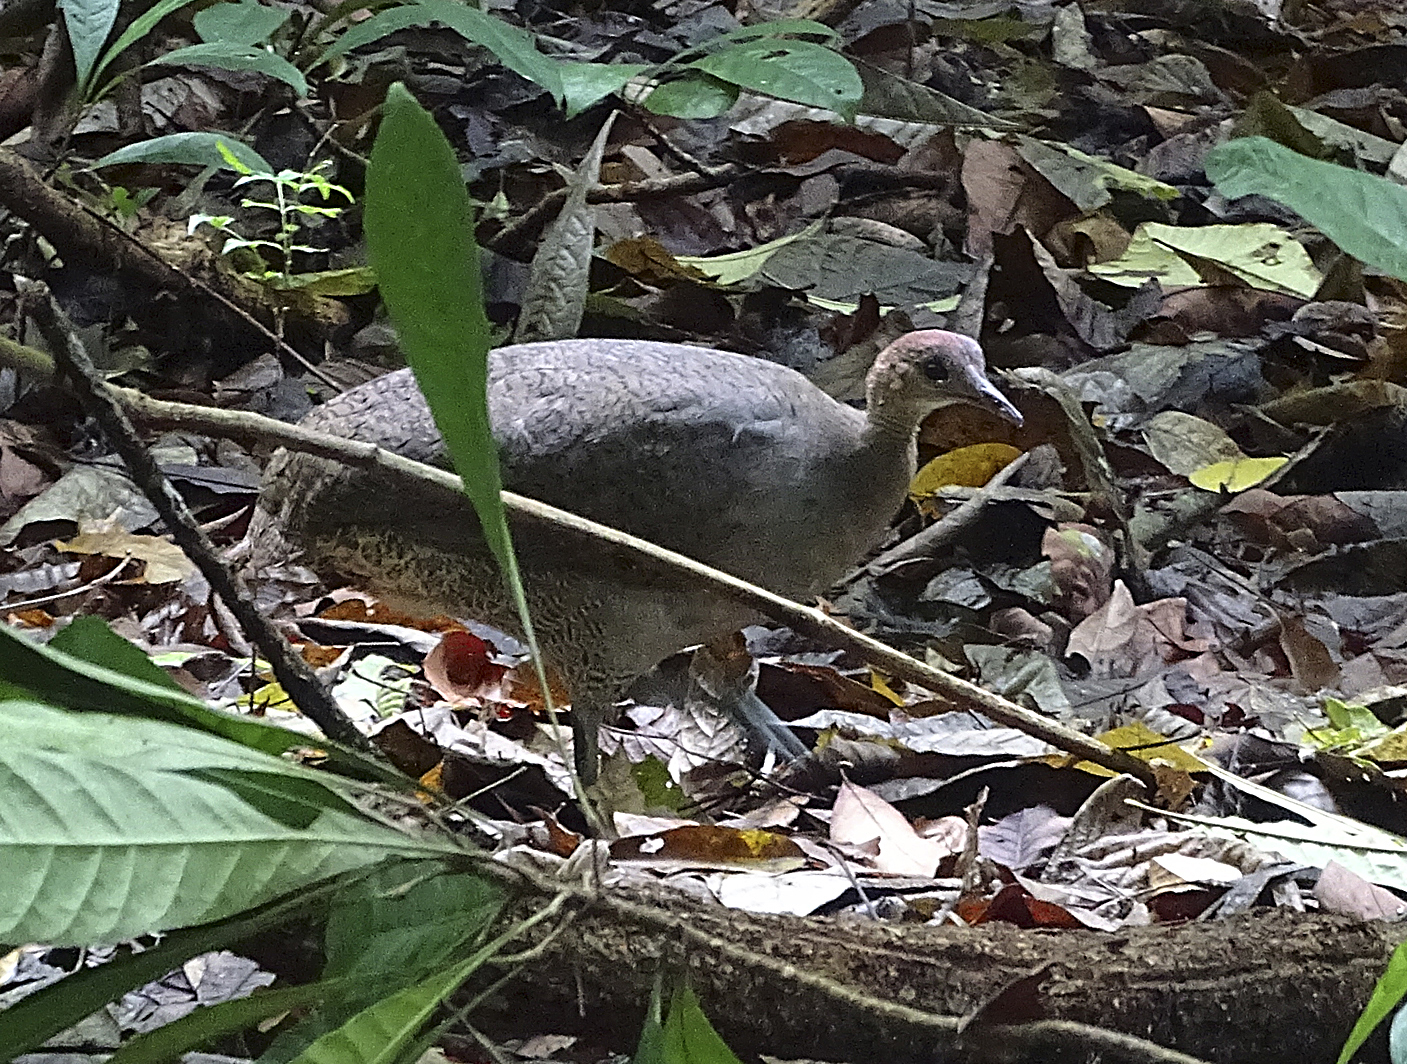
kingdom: Animalia
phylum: Chordata
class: Aves
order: Tinamiformes
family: Tinamidae
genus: Tinamus
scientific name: Tinamus major
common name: Great tinamou
